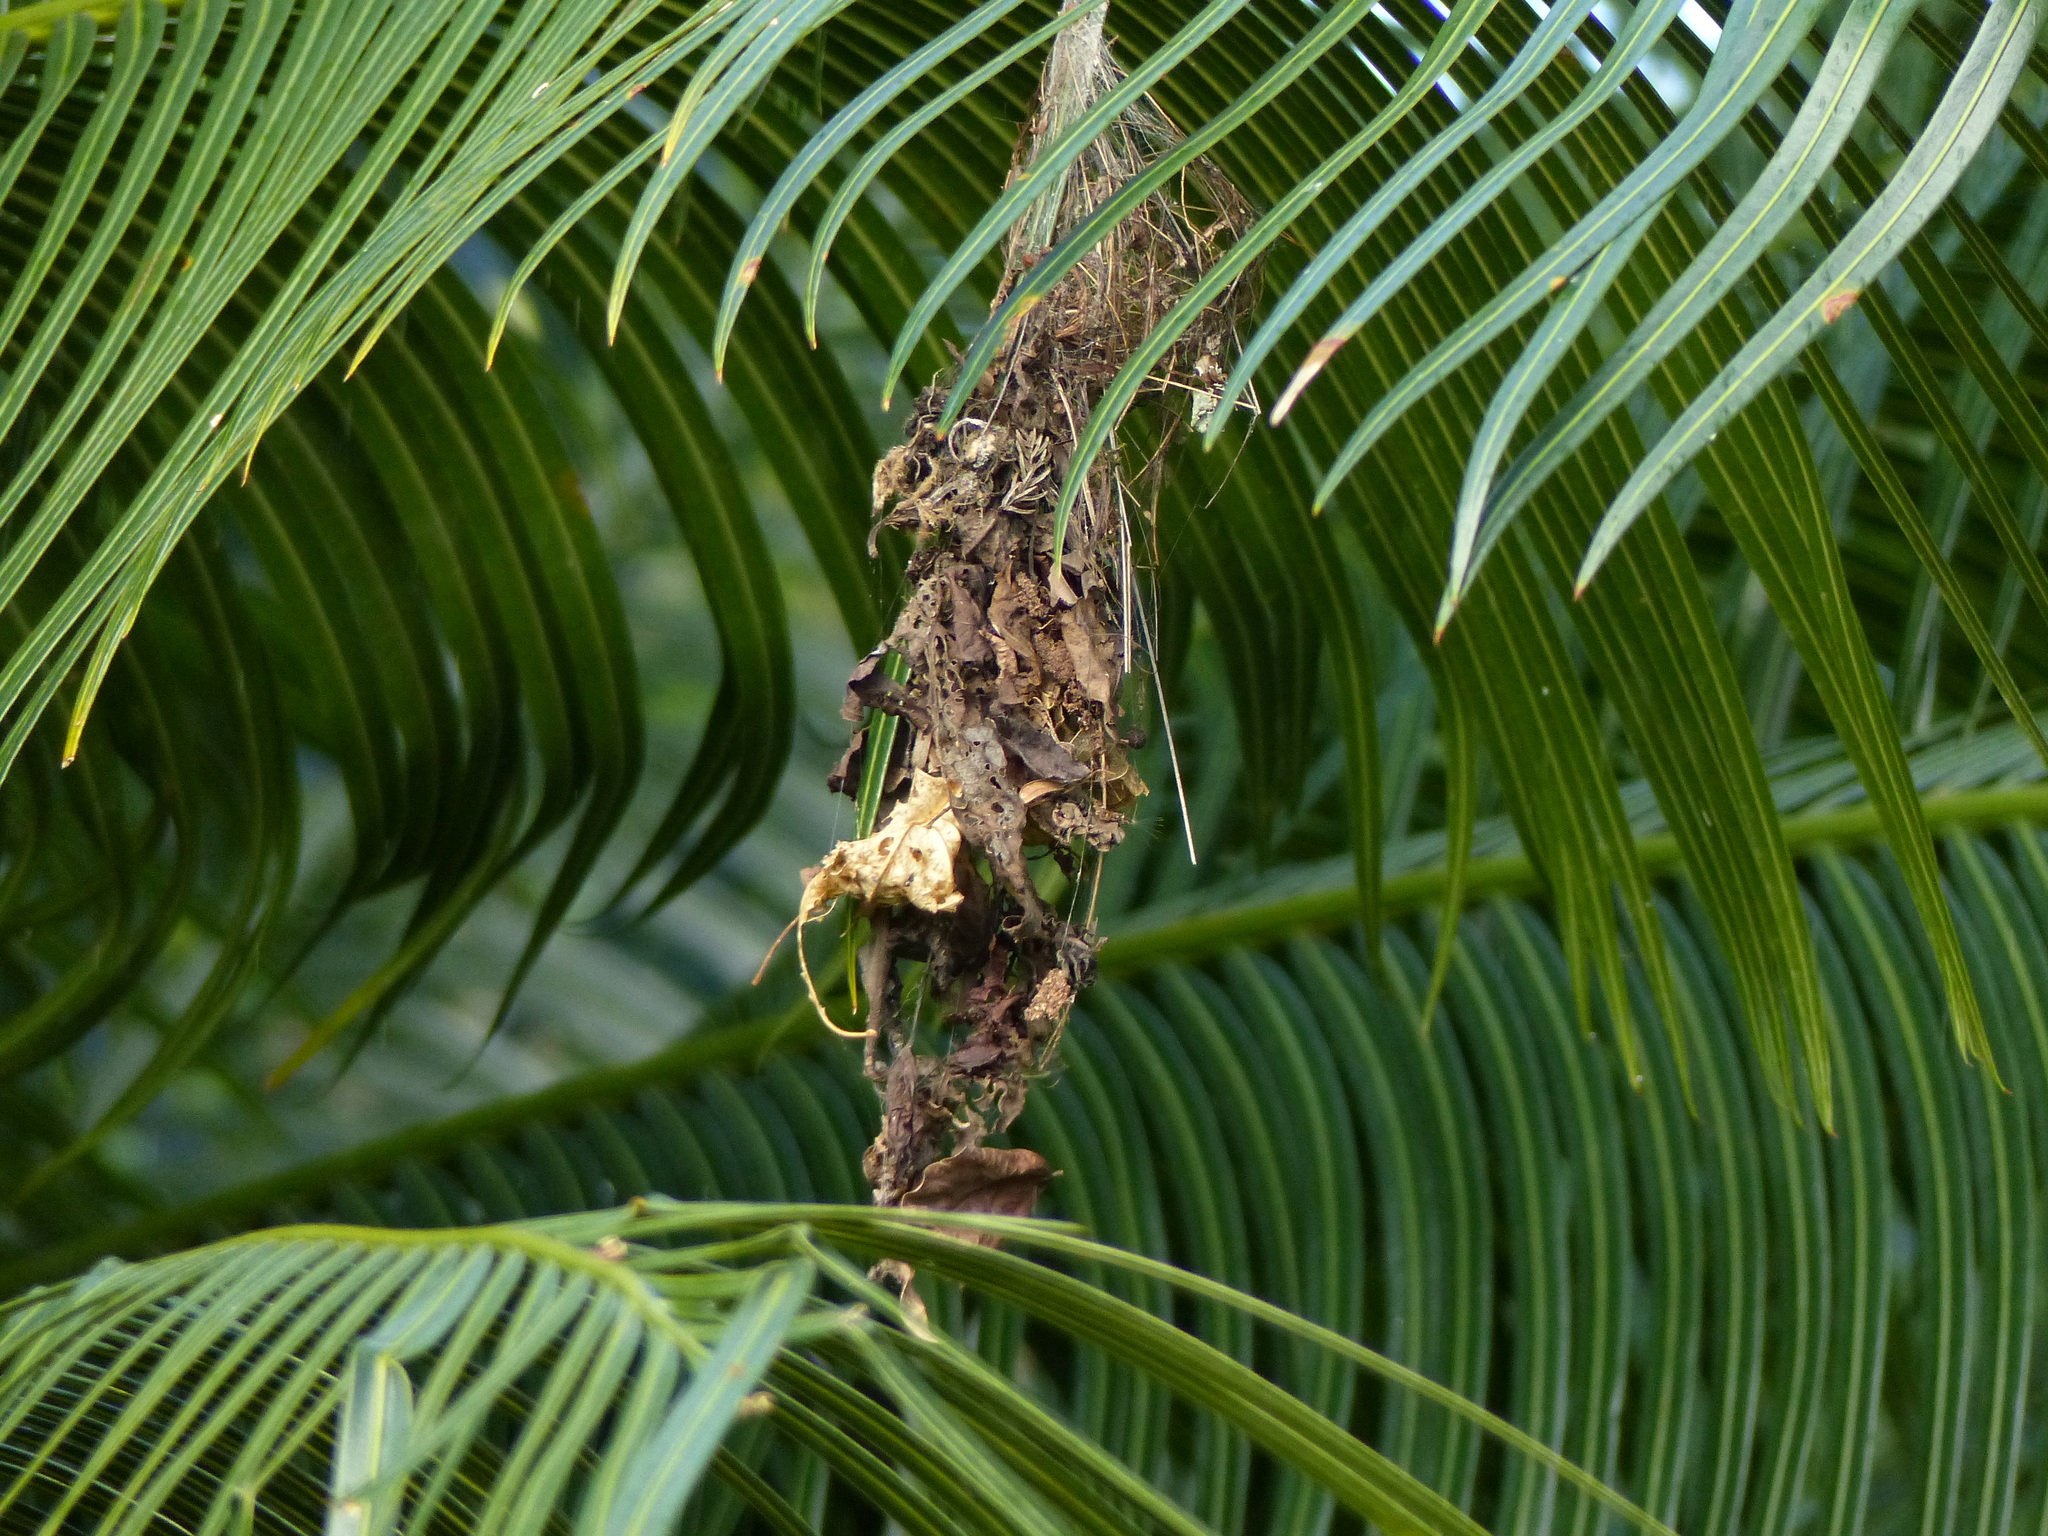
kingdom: Animalia
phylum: Chordata
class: Aves
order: Apodiformes
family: Trochilidae
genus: Glaucis
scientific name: Glaucis hirsutus
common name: Rufous-breasted hermit
